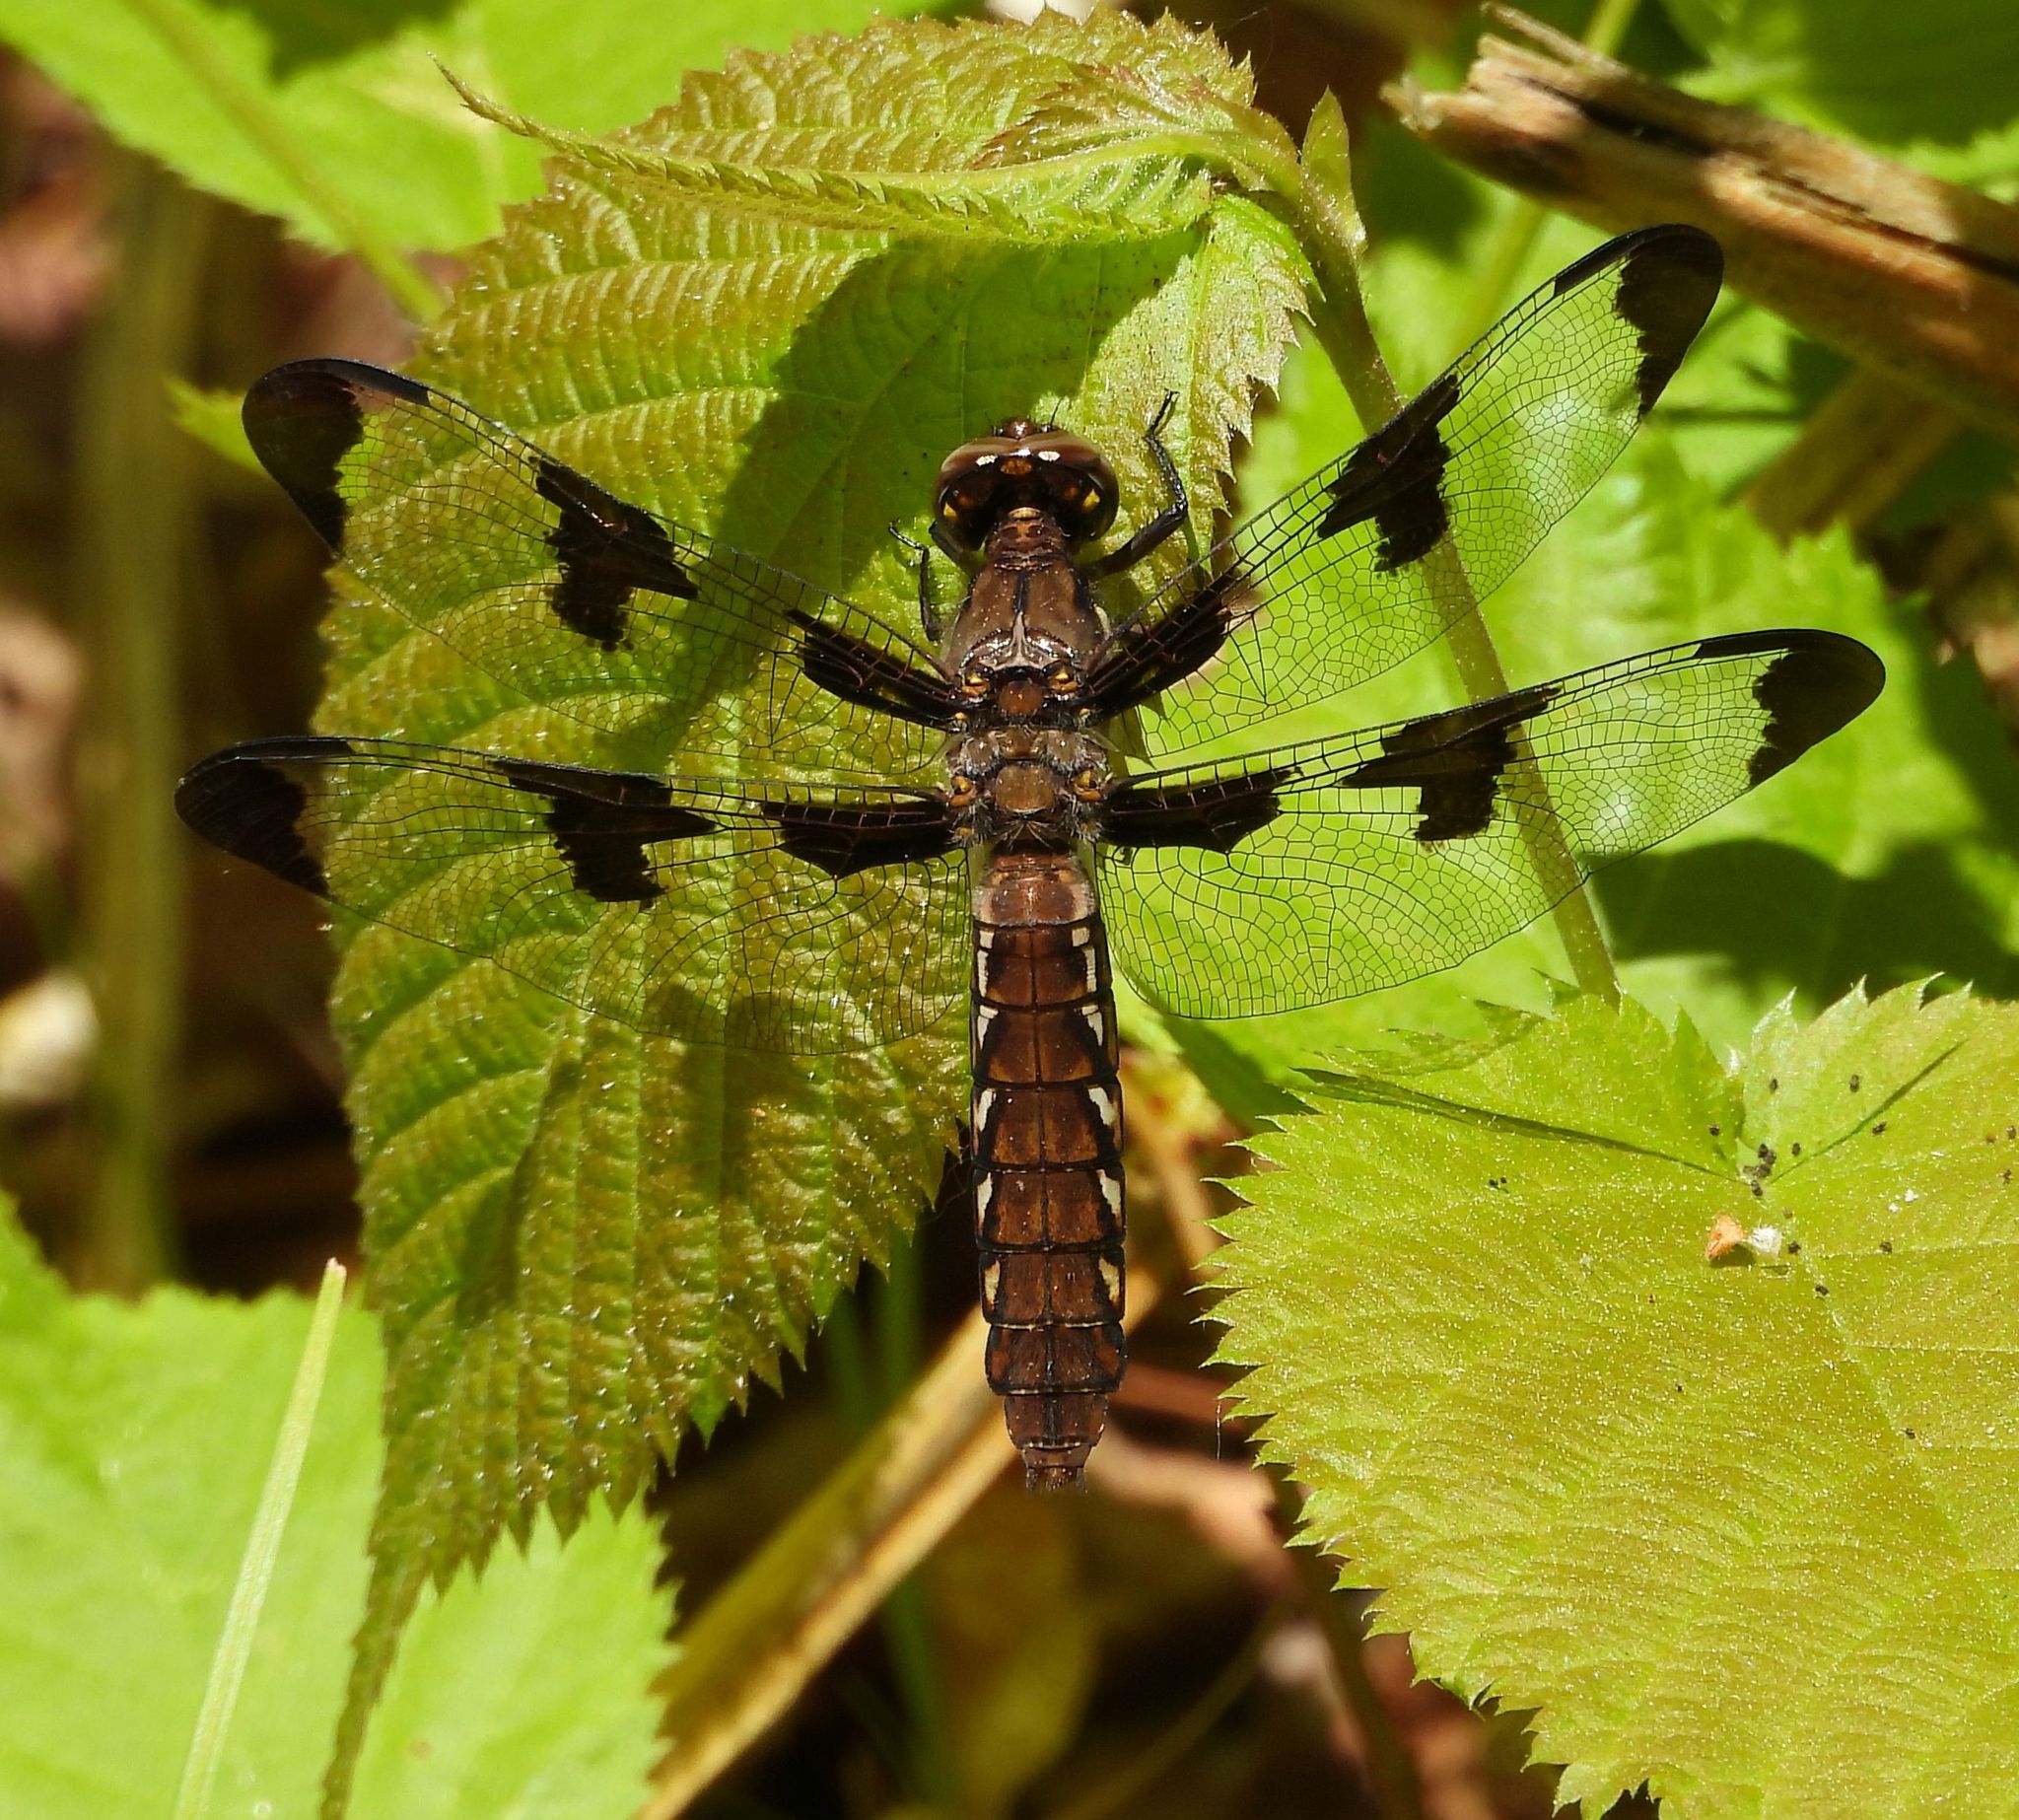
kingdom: Animalia
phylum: Arthropoda
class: Insecta
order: Odonata
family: Libellulidae
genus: Plathemis
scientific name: Plathemis lydia
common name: Common whitetail
